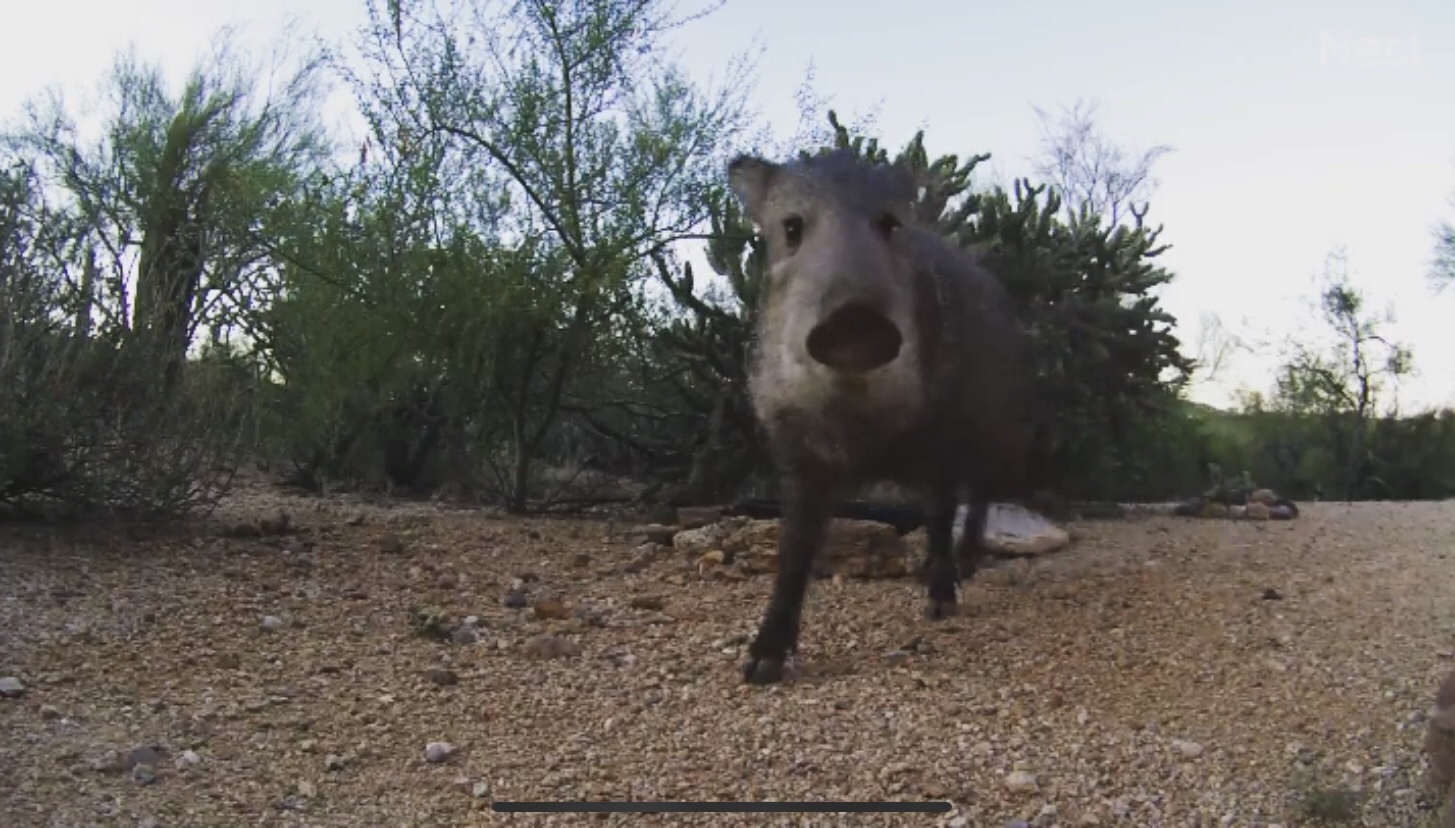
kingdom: Animalia
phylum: Chordata
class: Mammalia
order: Artiodactyla
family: Tayassuidae
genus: Pecari
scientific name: Pecari tajacu
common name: Collared peccary
